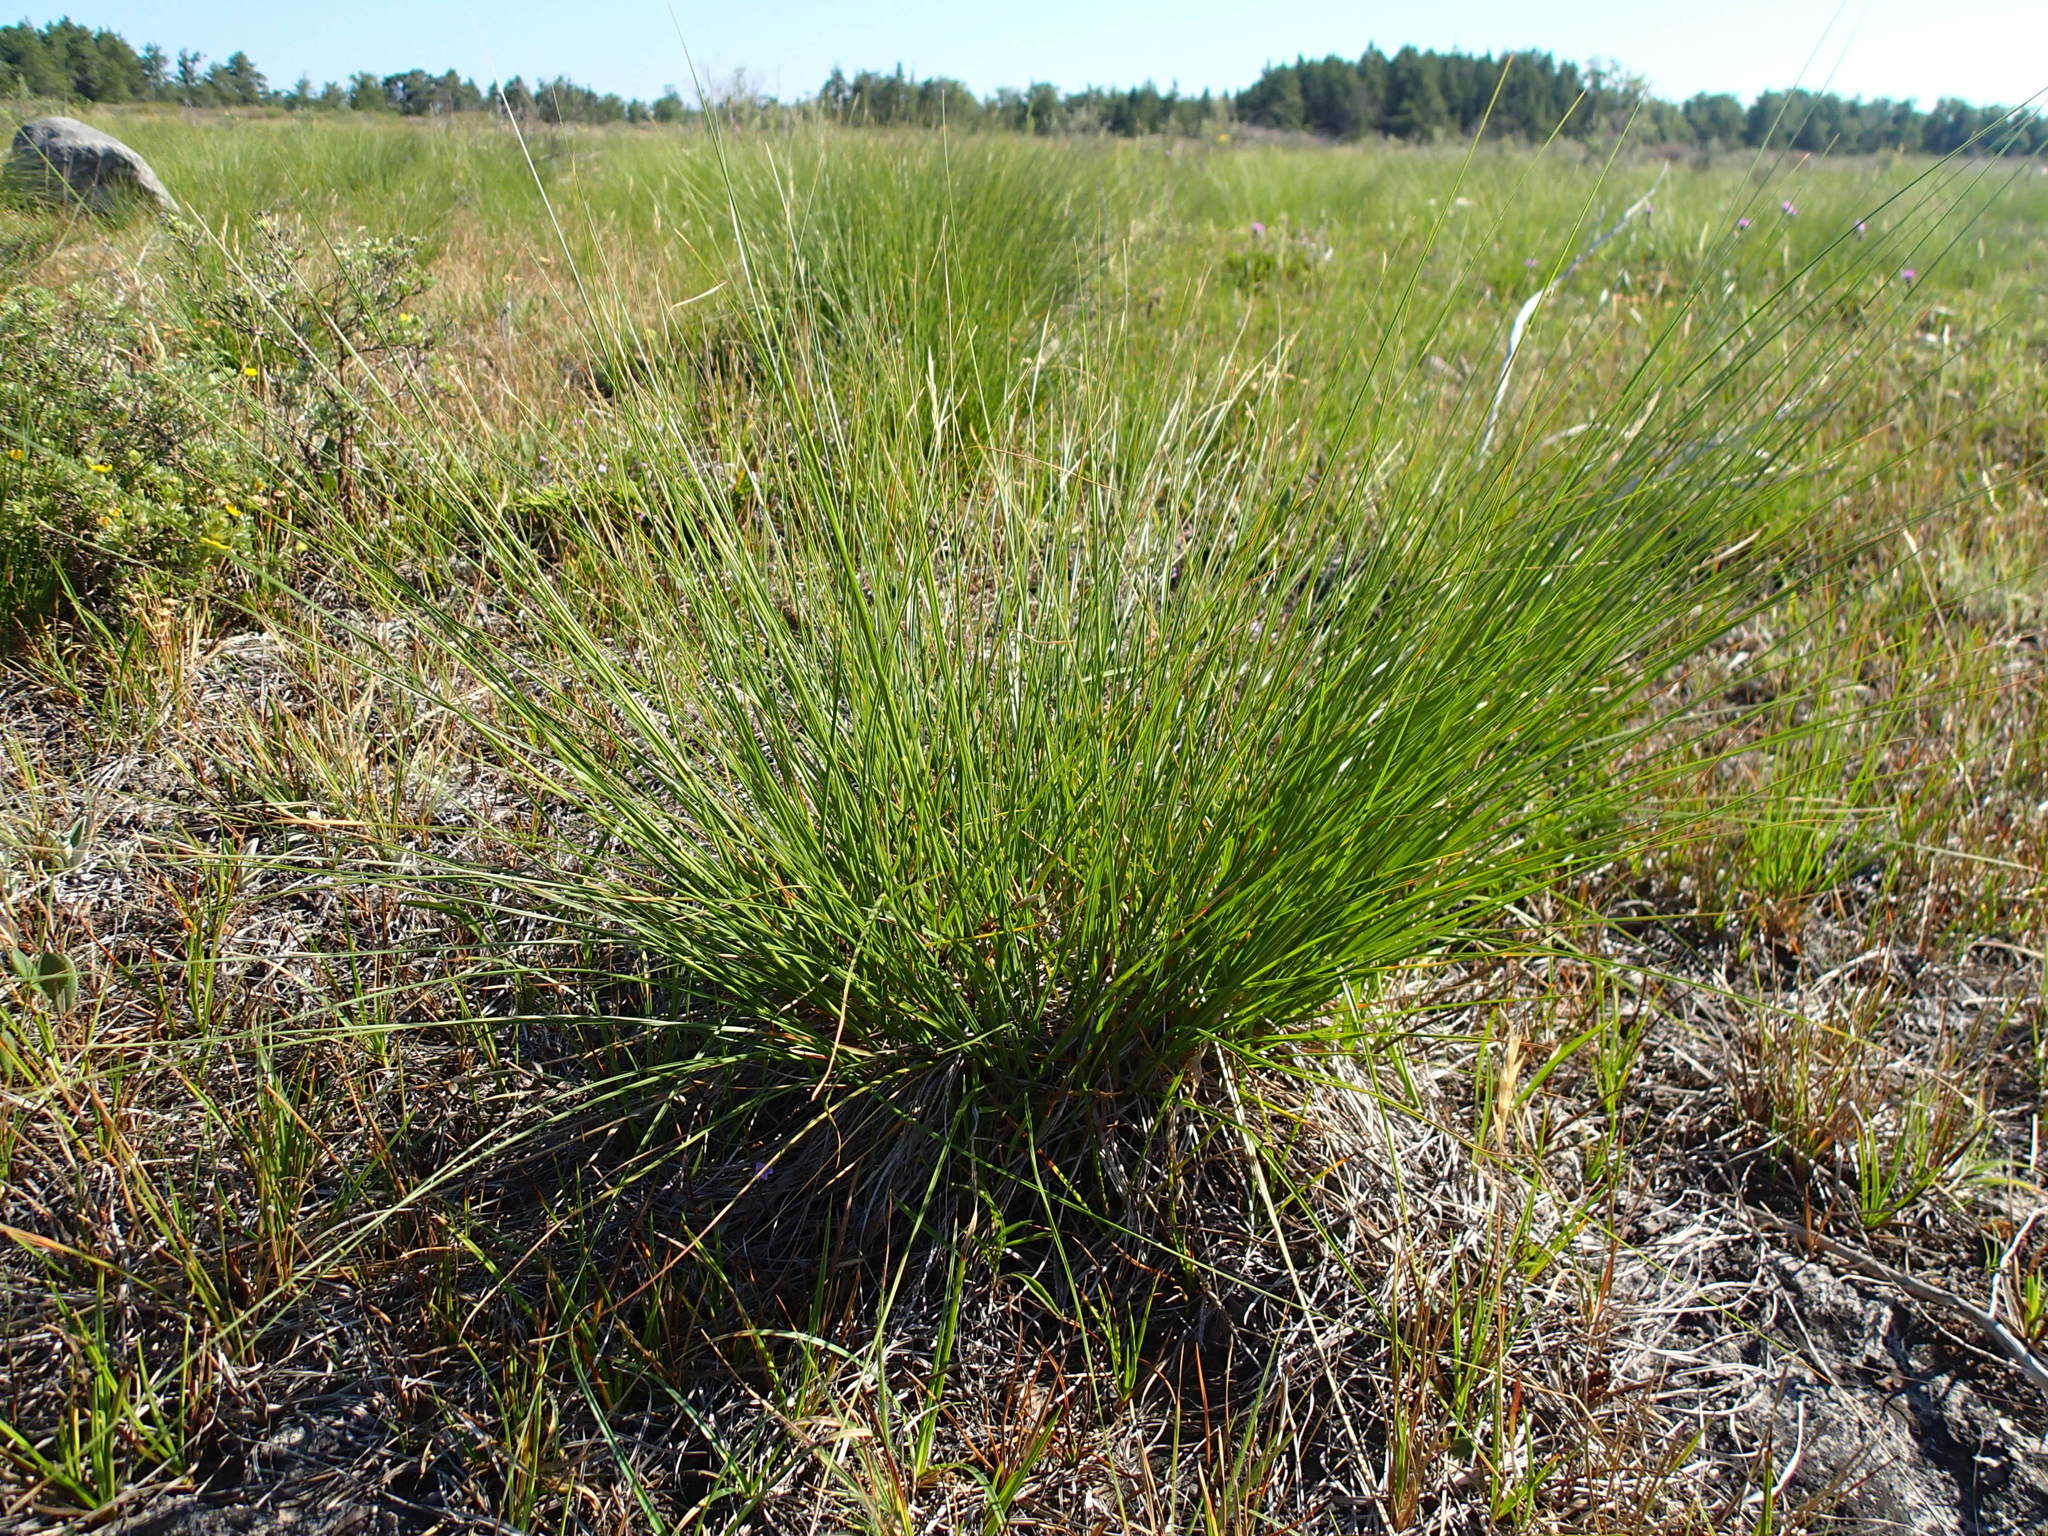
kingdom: Plantae
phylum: Tracheophyta
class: Liliopsida
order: Poales
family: Poaceae
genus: Sporobolus
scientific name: Sporobolus heterolepis
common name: Prairie dropseed
